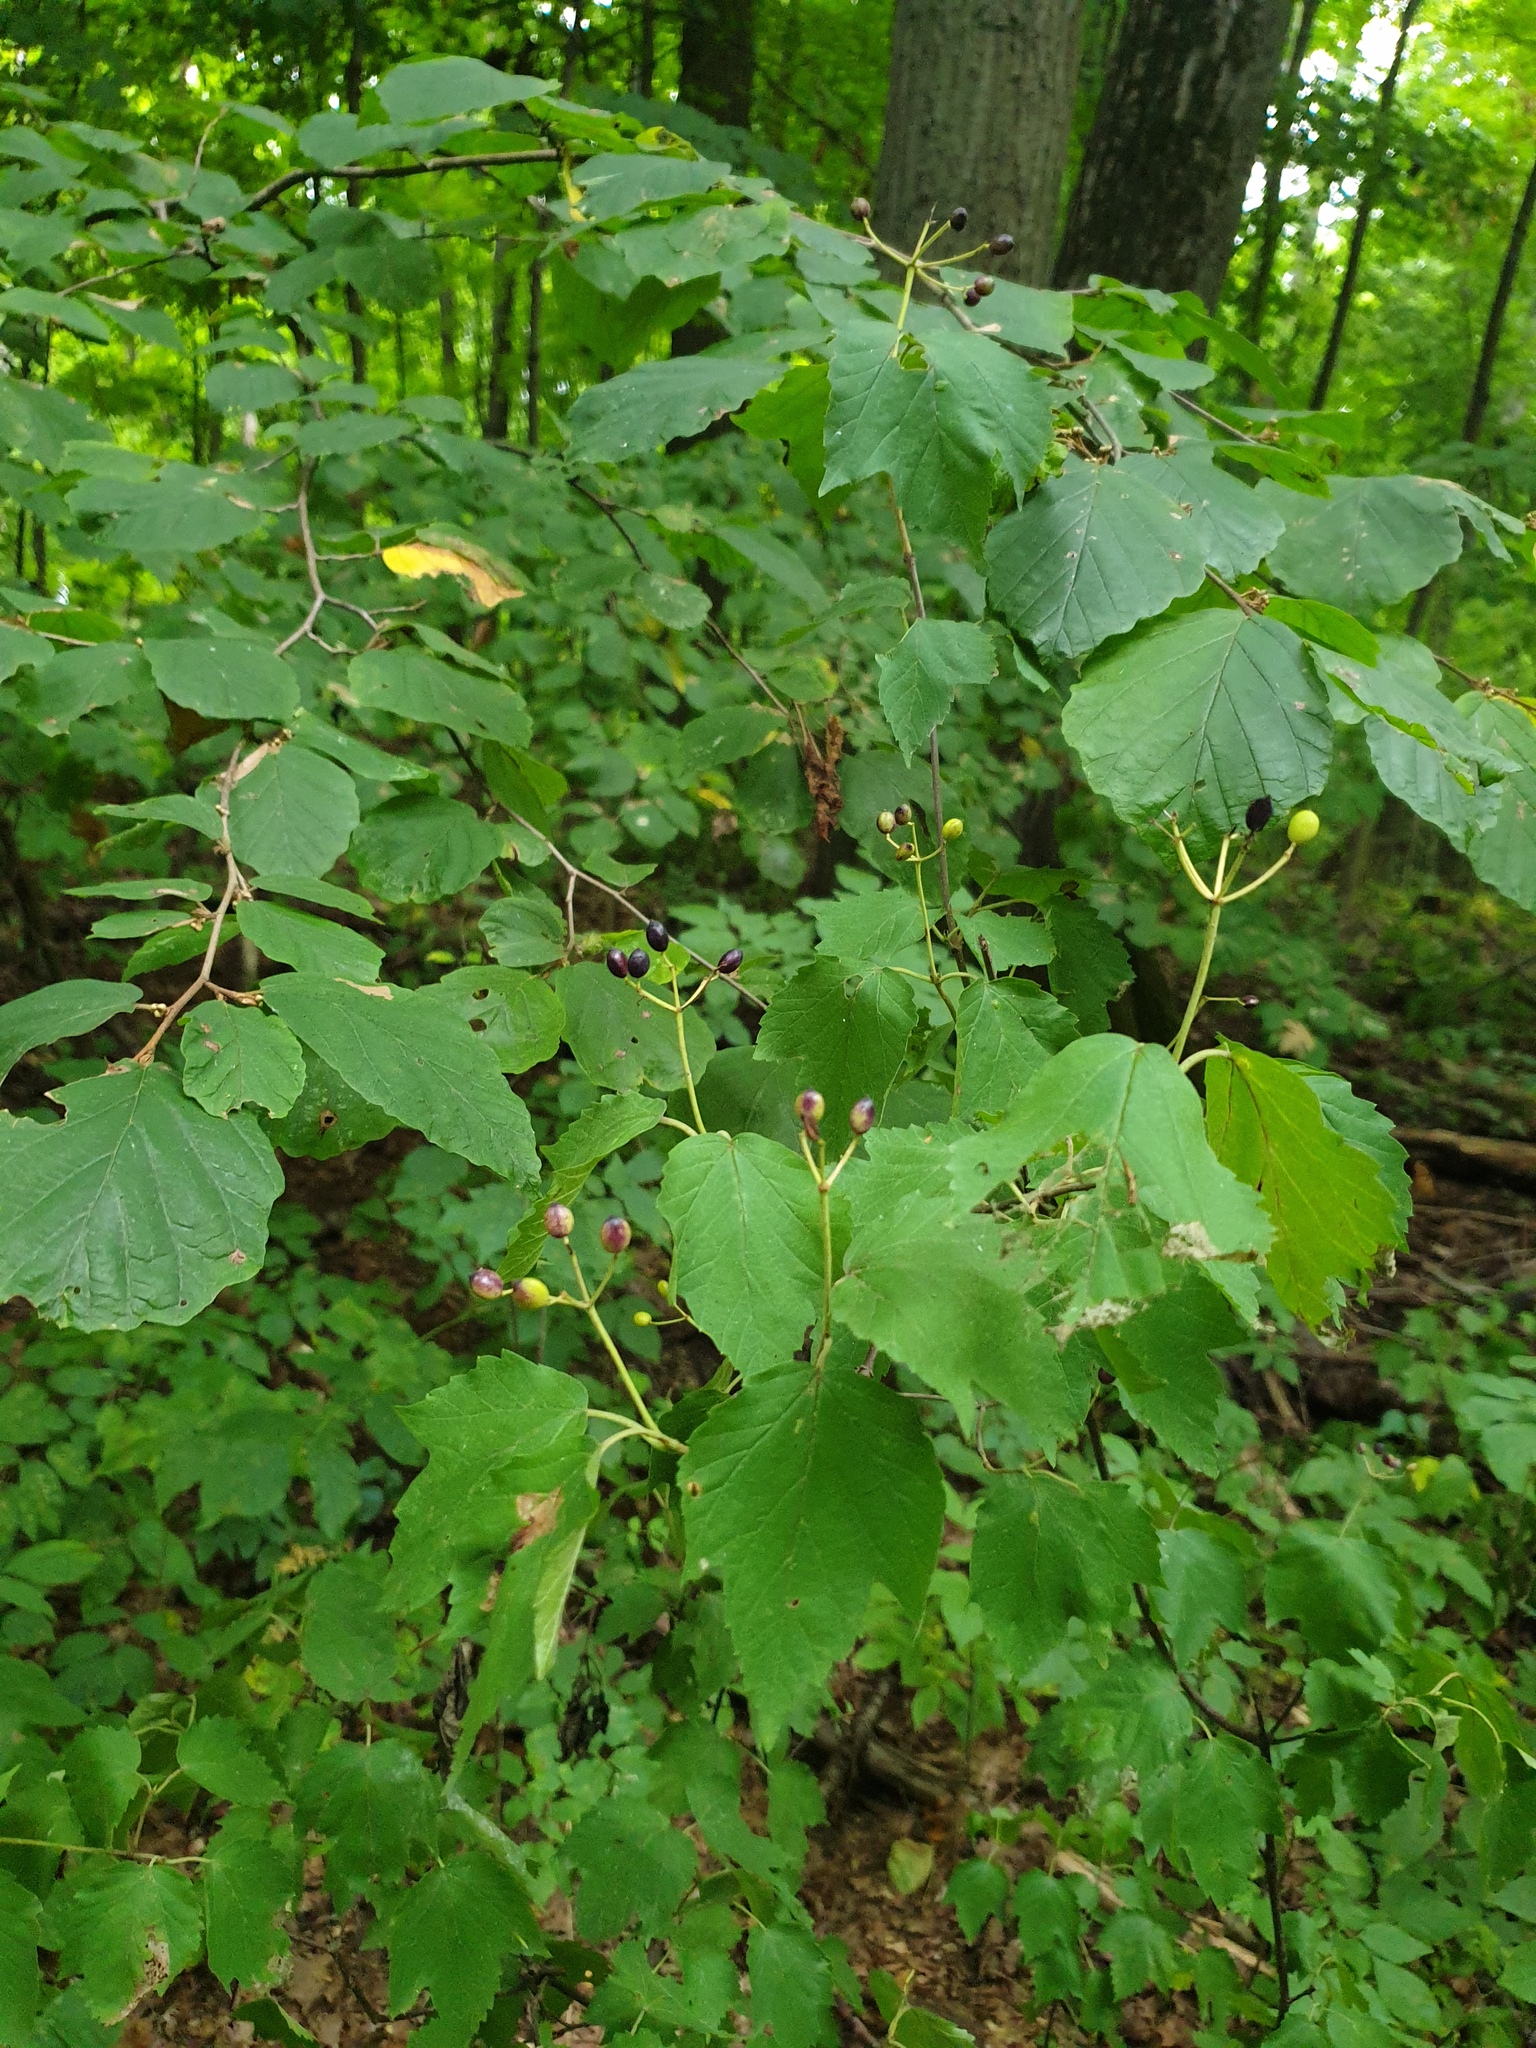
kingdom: Plantae
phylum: Tracheophyta
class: Magnoliopsida
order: Dipsacales
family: Viburnaceae
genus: Viburnum
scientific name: Viburnum acerifolium
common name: Dockmackie
